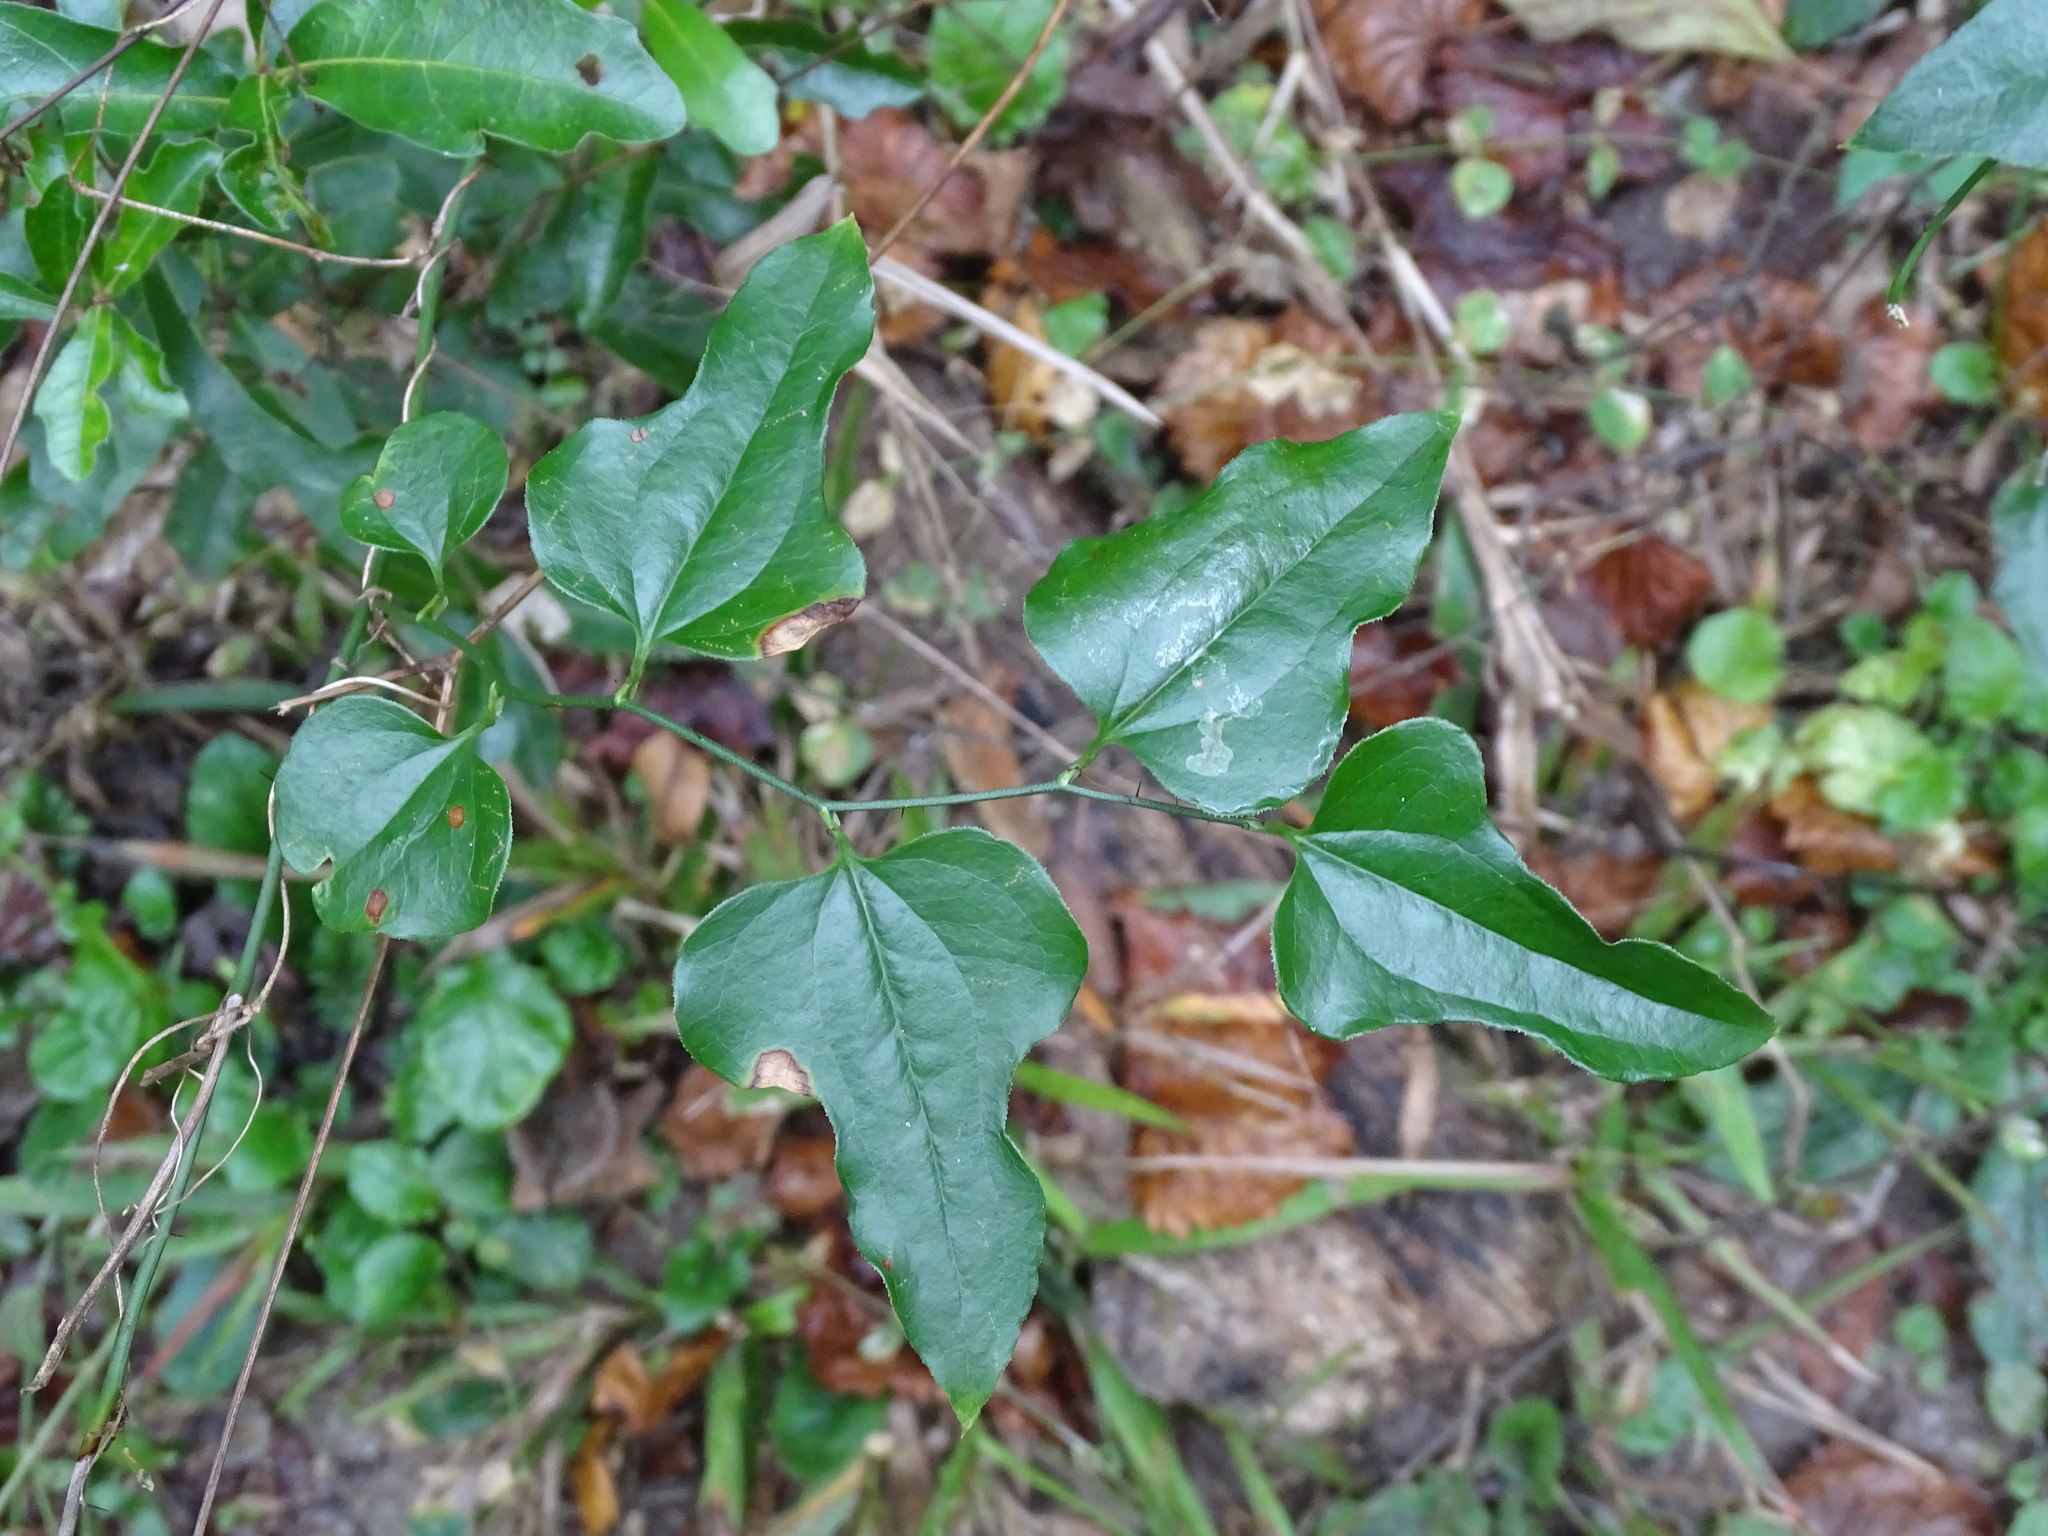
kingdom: Plantae
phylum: Tracheophyta
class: Liliopsida
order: Liliales
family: Smilacaceae
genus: Smilax
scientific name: Smilax tamnoides
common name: Hellfetter
